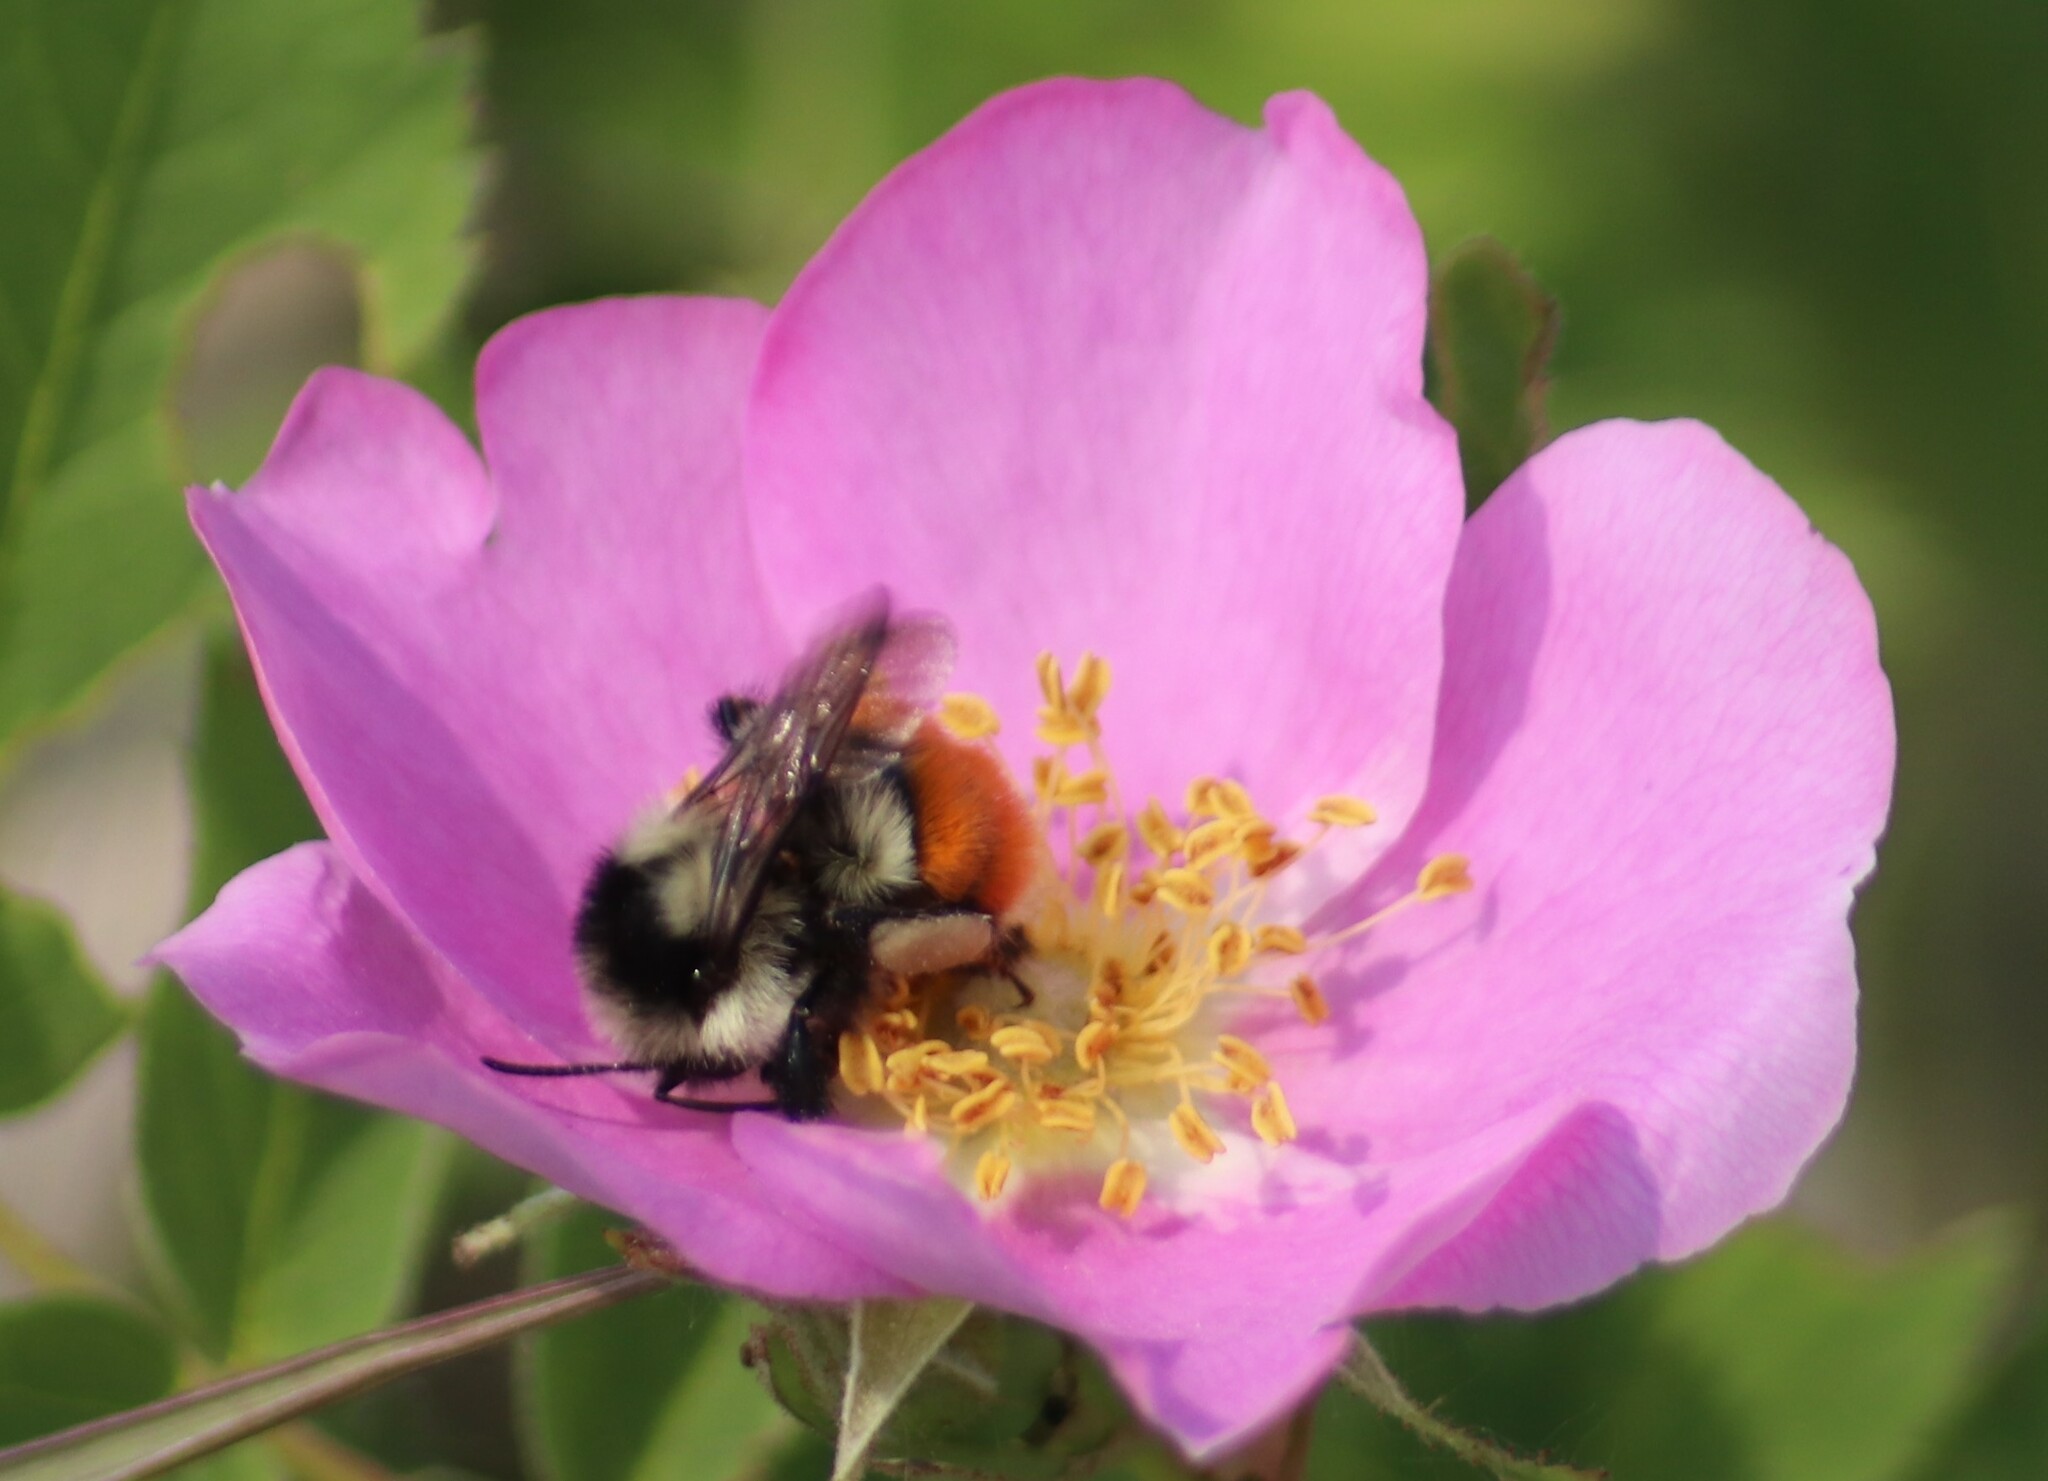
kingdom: Animalia
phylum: Arthropoda
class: Insecta
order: Hymenoptera
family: Apidae
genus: Bombus
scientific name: Bombus ternarius
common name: Tri-colored bumble bee
